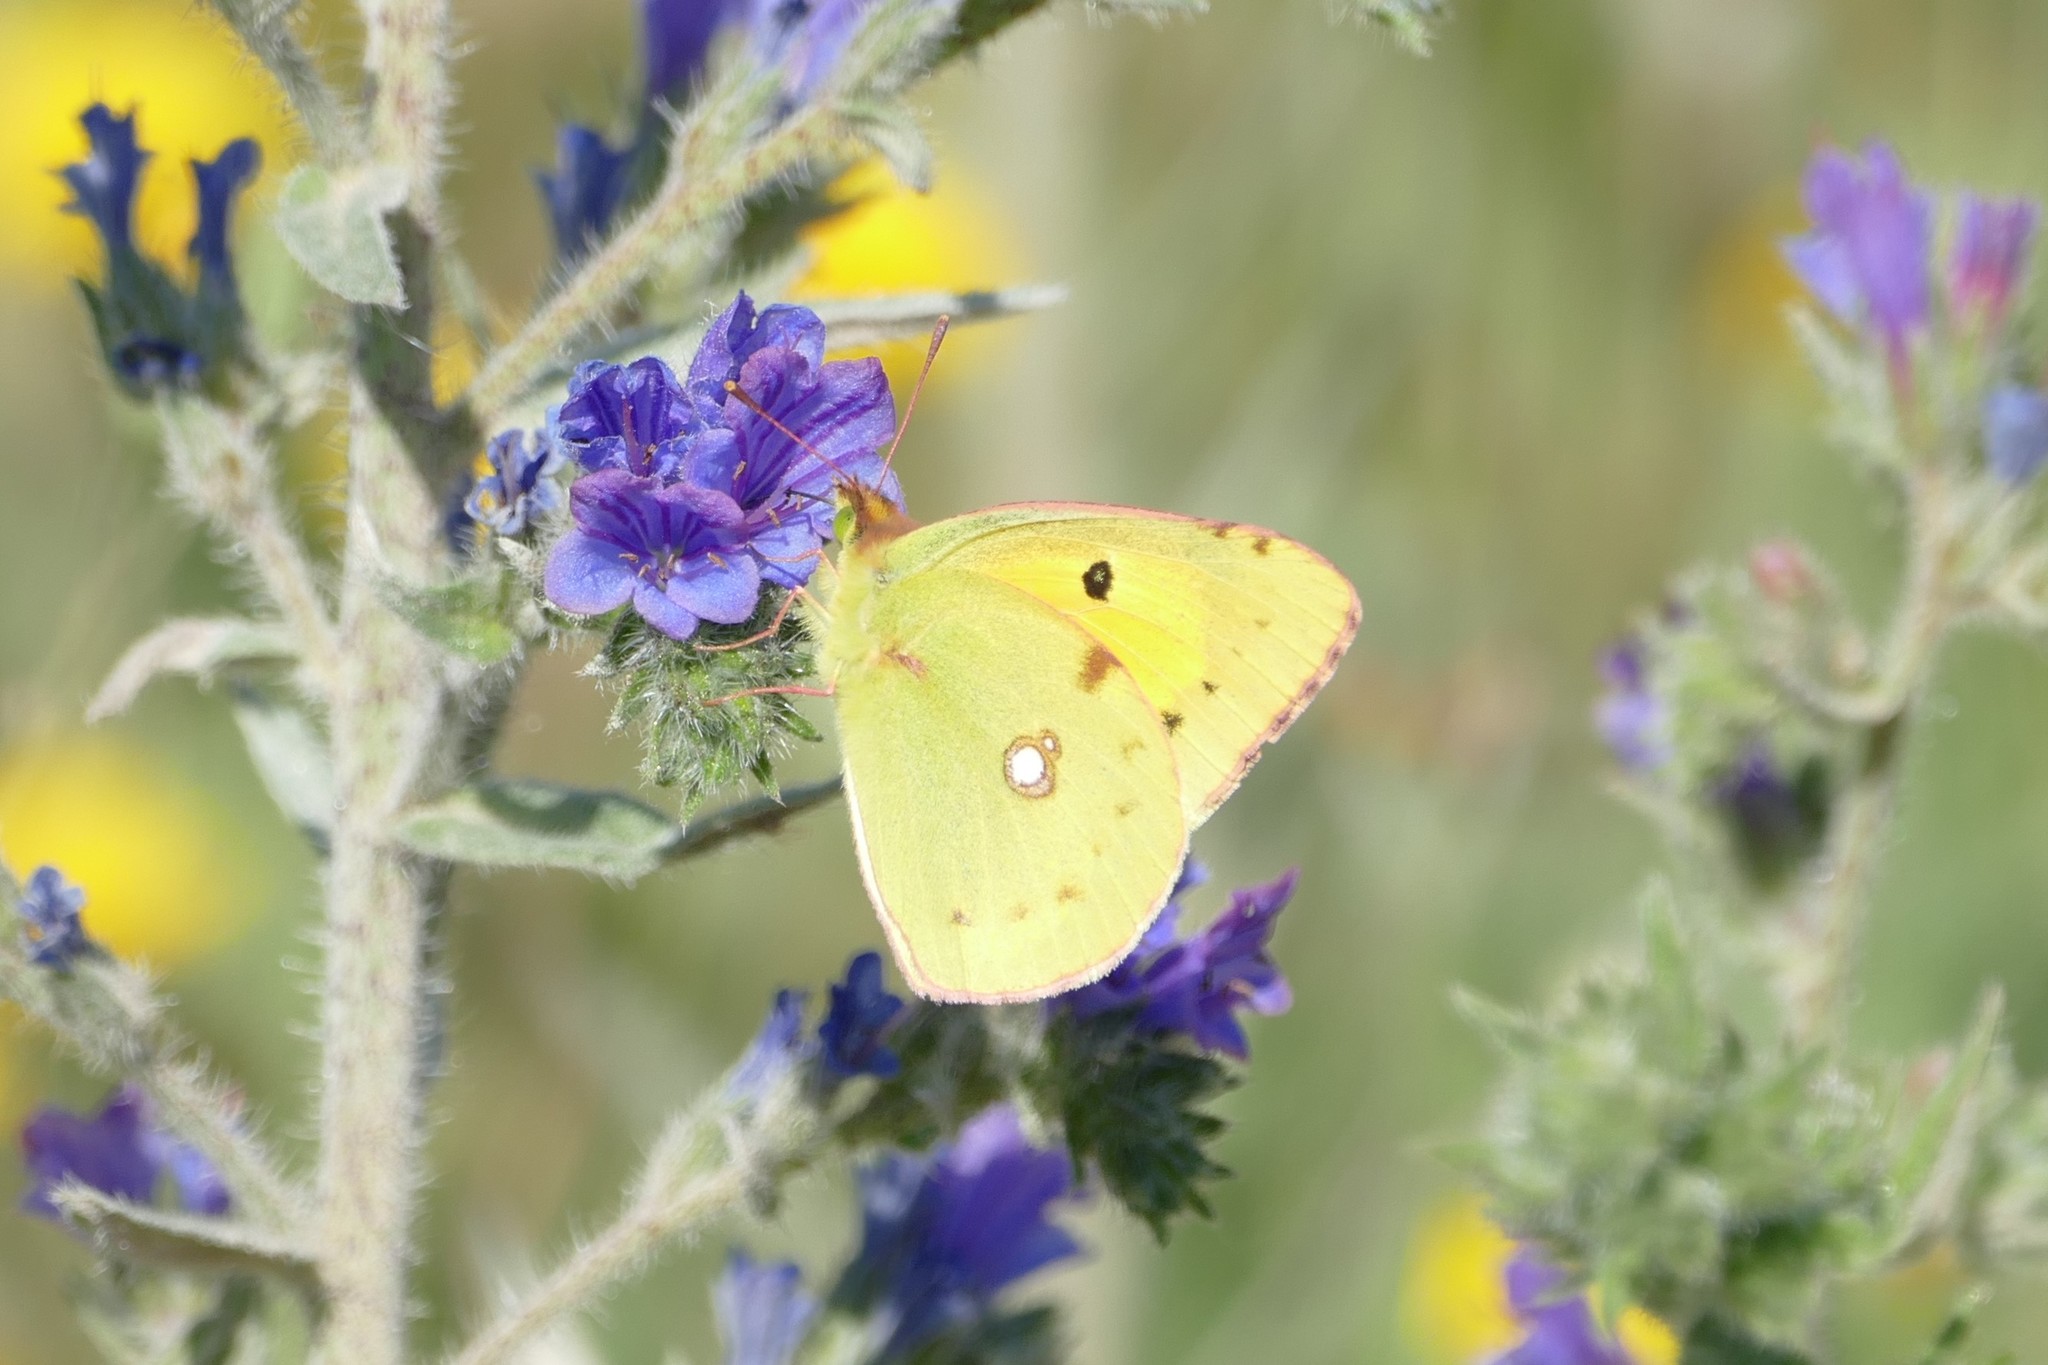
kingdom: Animalia
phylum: Arthropoda
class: Insecta
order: Lepidoptera
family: Pieridae
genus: Colias
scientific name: Colias croceus
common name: Clouded yellow
